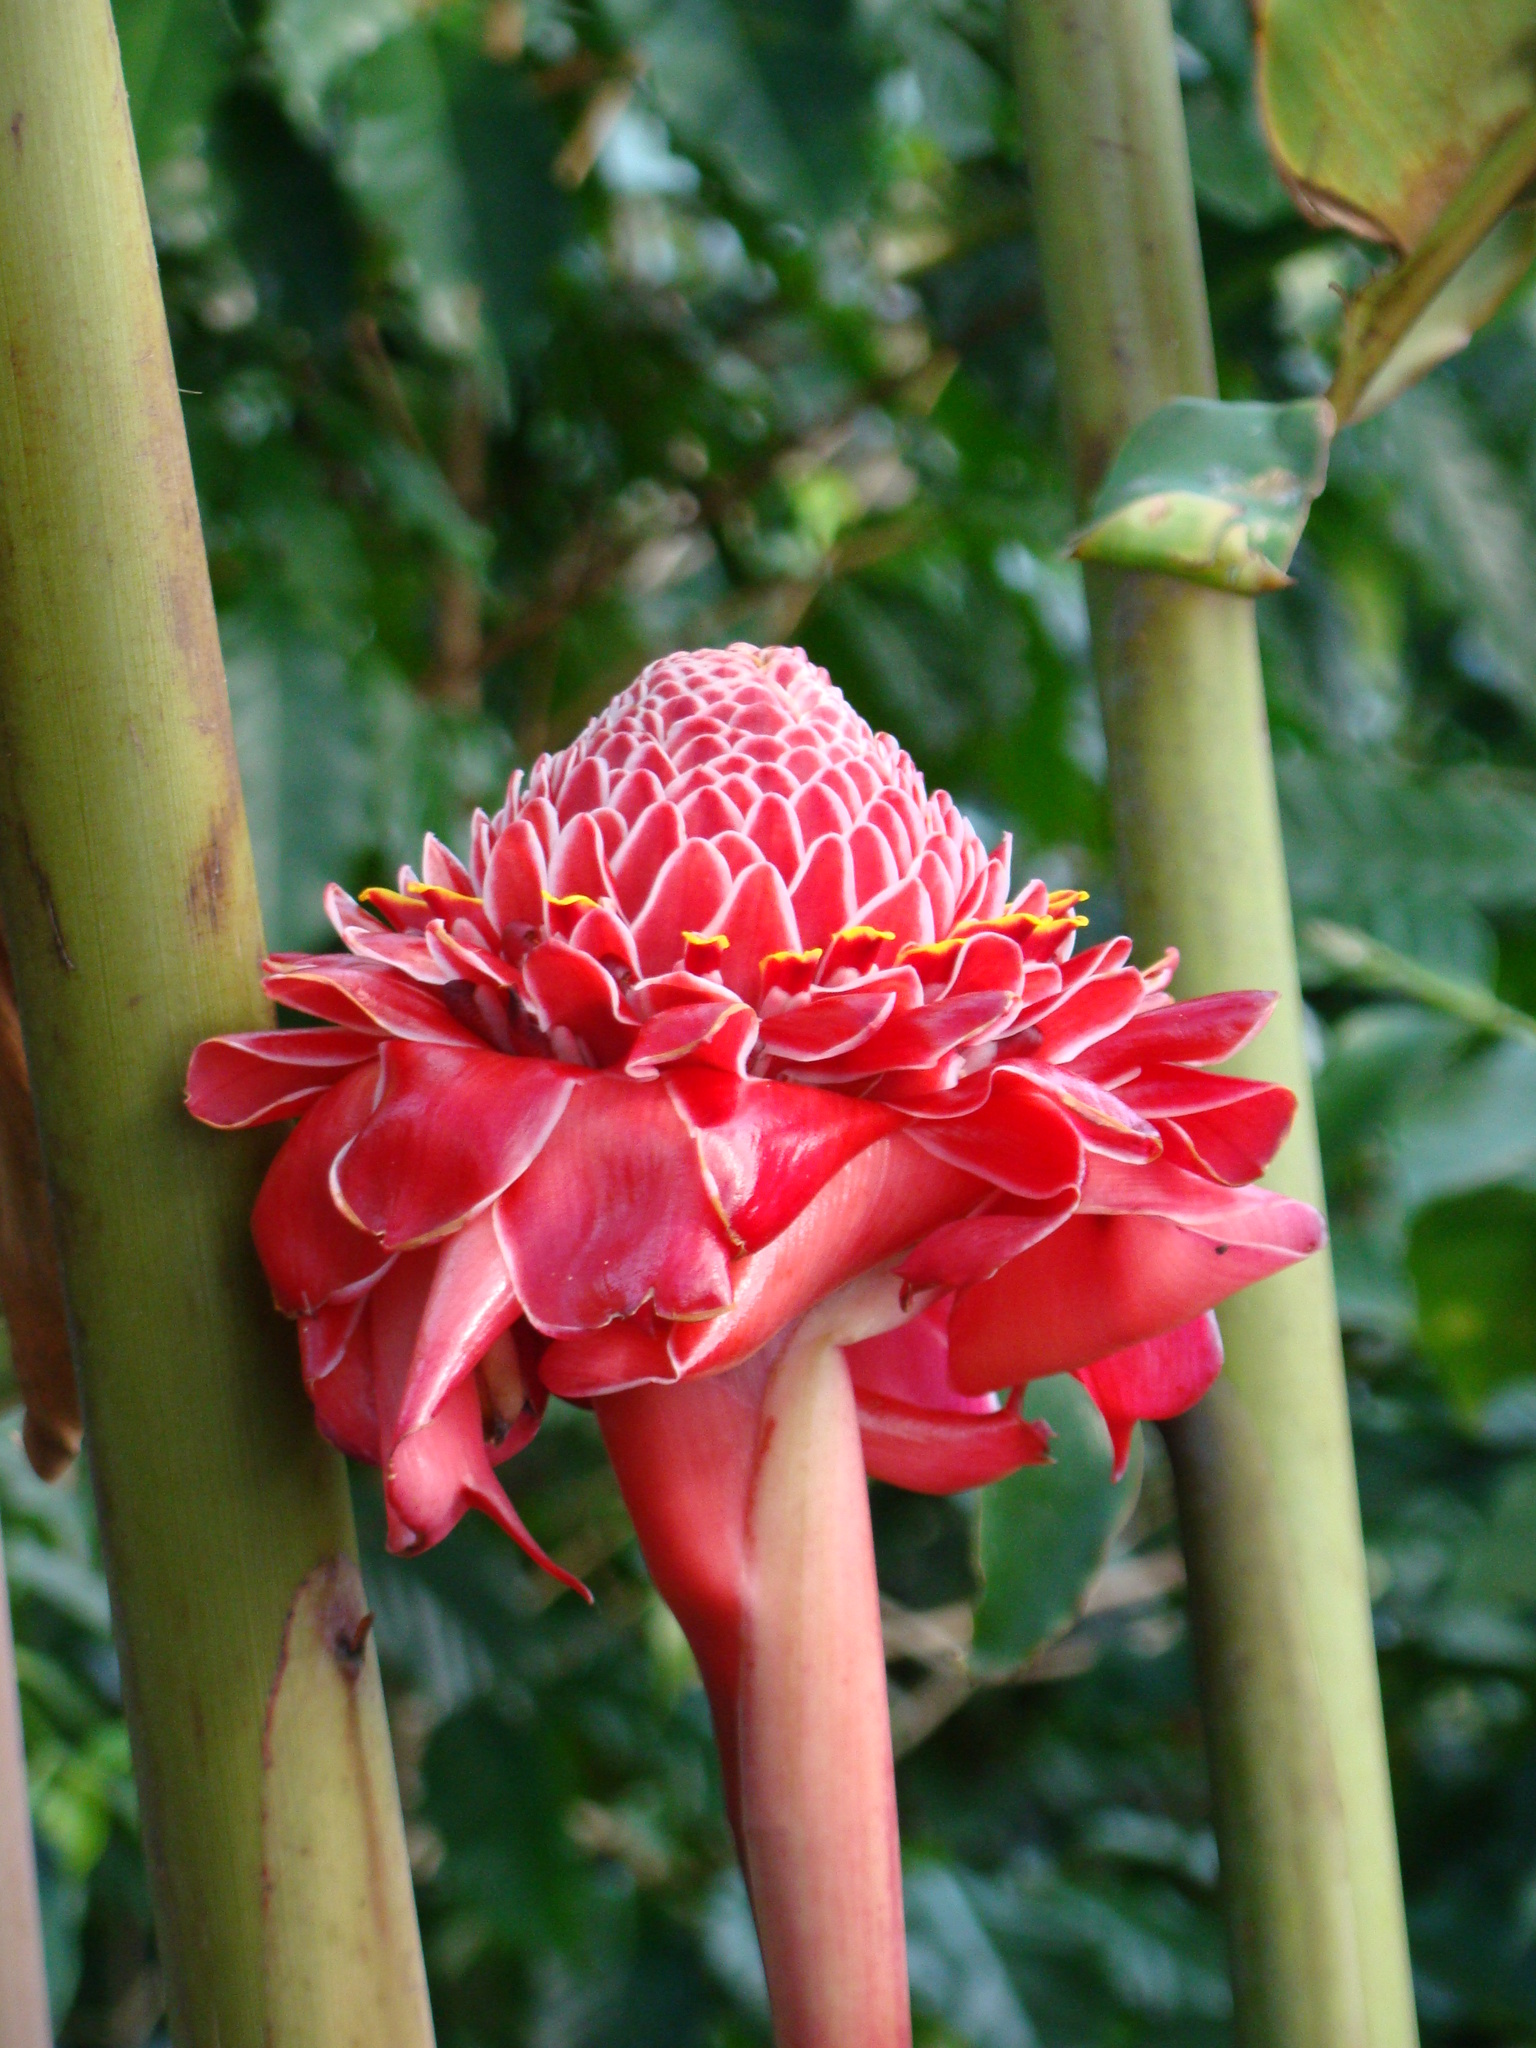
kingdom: Plantae
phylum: Tracheophyta
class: Liliopsida
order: Zingiberales
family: Zingiberaceae
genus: Etlingera
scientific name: Etlingera elatior
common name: Philippine waxflower
